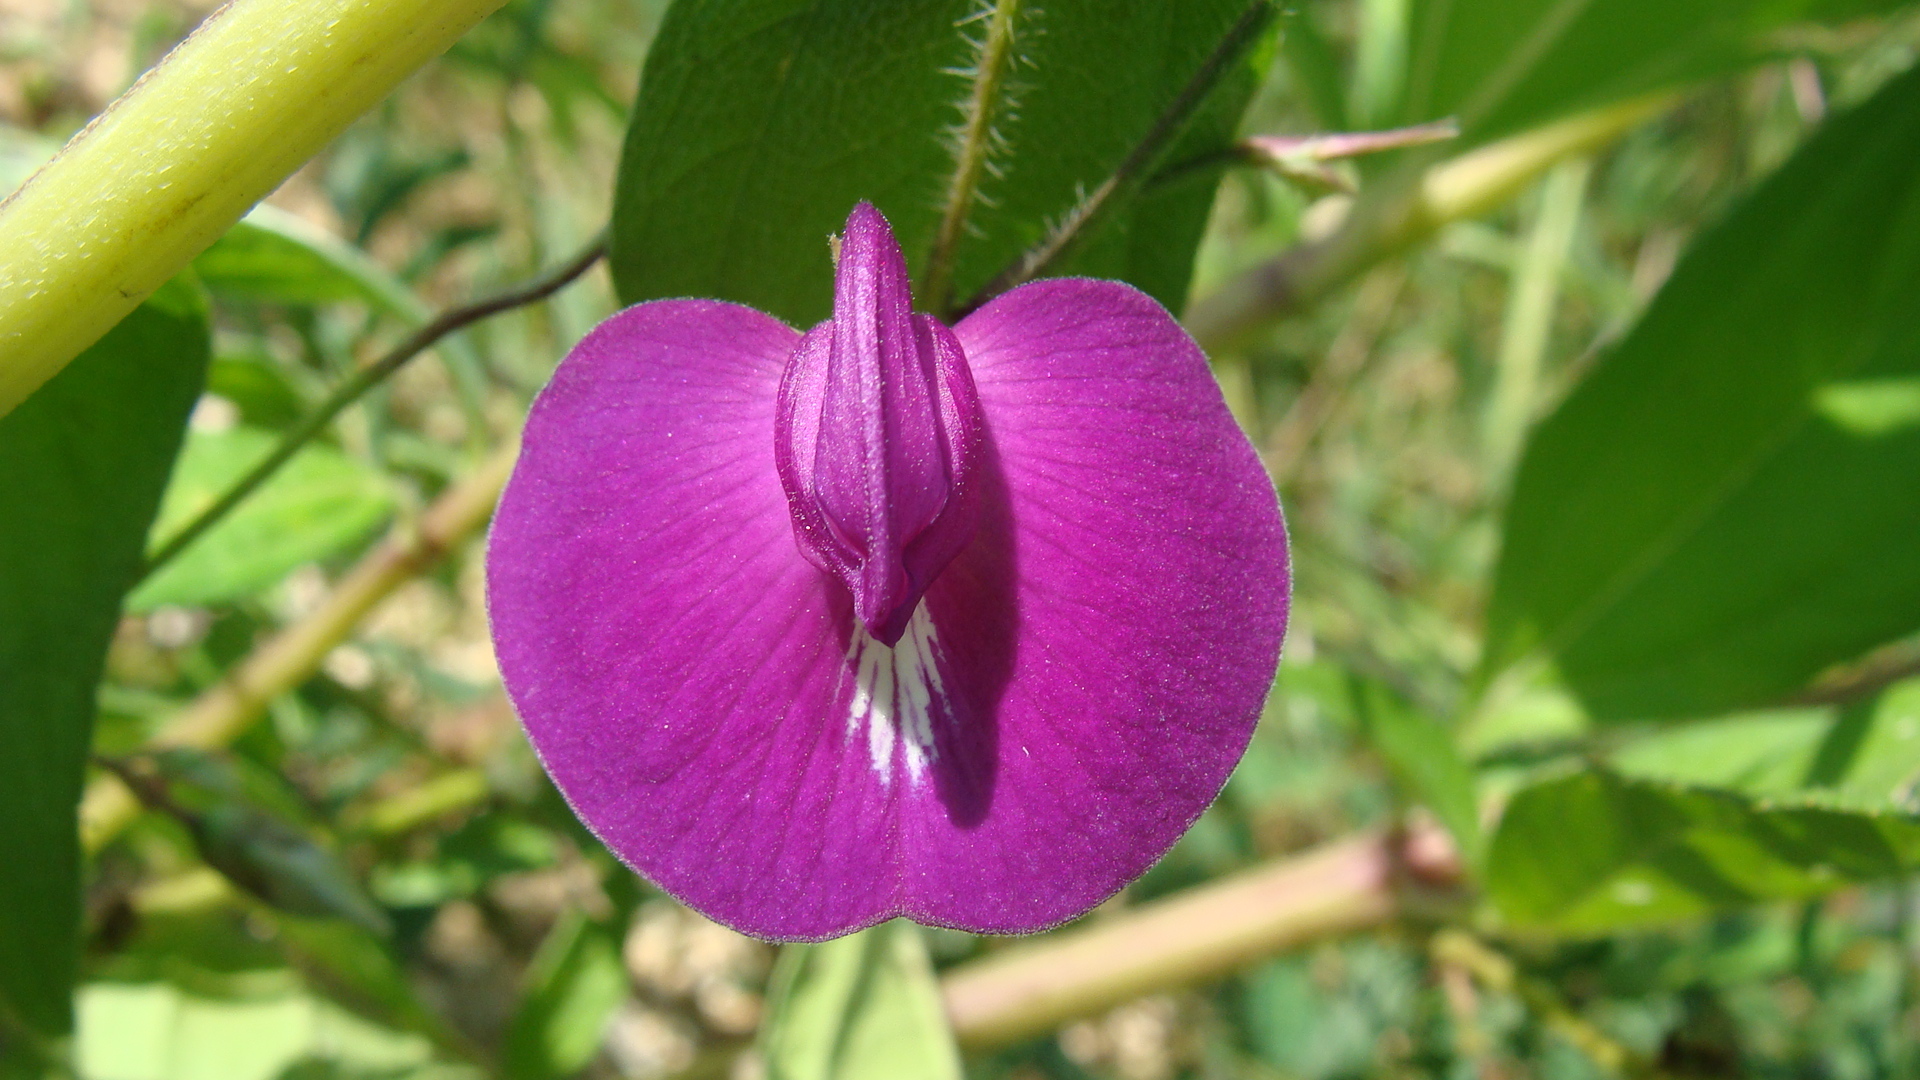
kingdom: Plantae
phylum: Tracheophyta
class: Magnoliopsida
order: Fabales
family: Fabaceae
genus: Centrosema
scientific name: Centrosema virginianum
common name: Butterfly-pea
